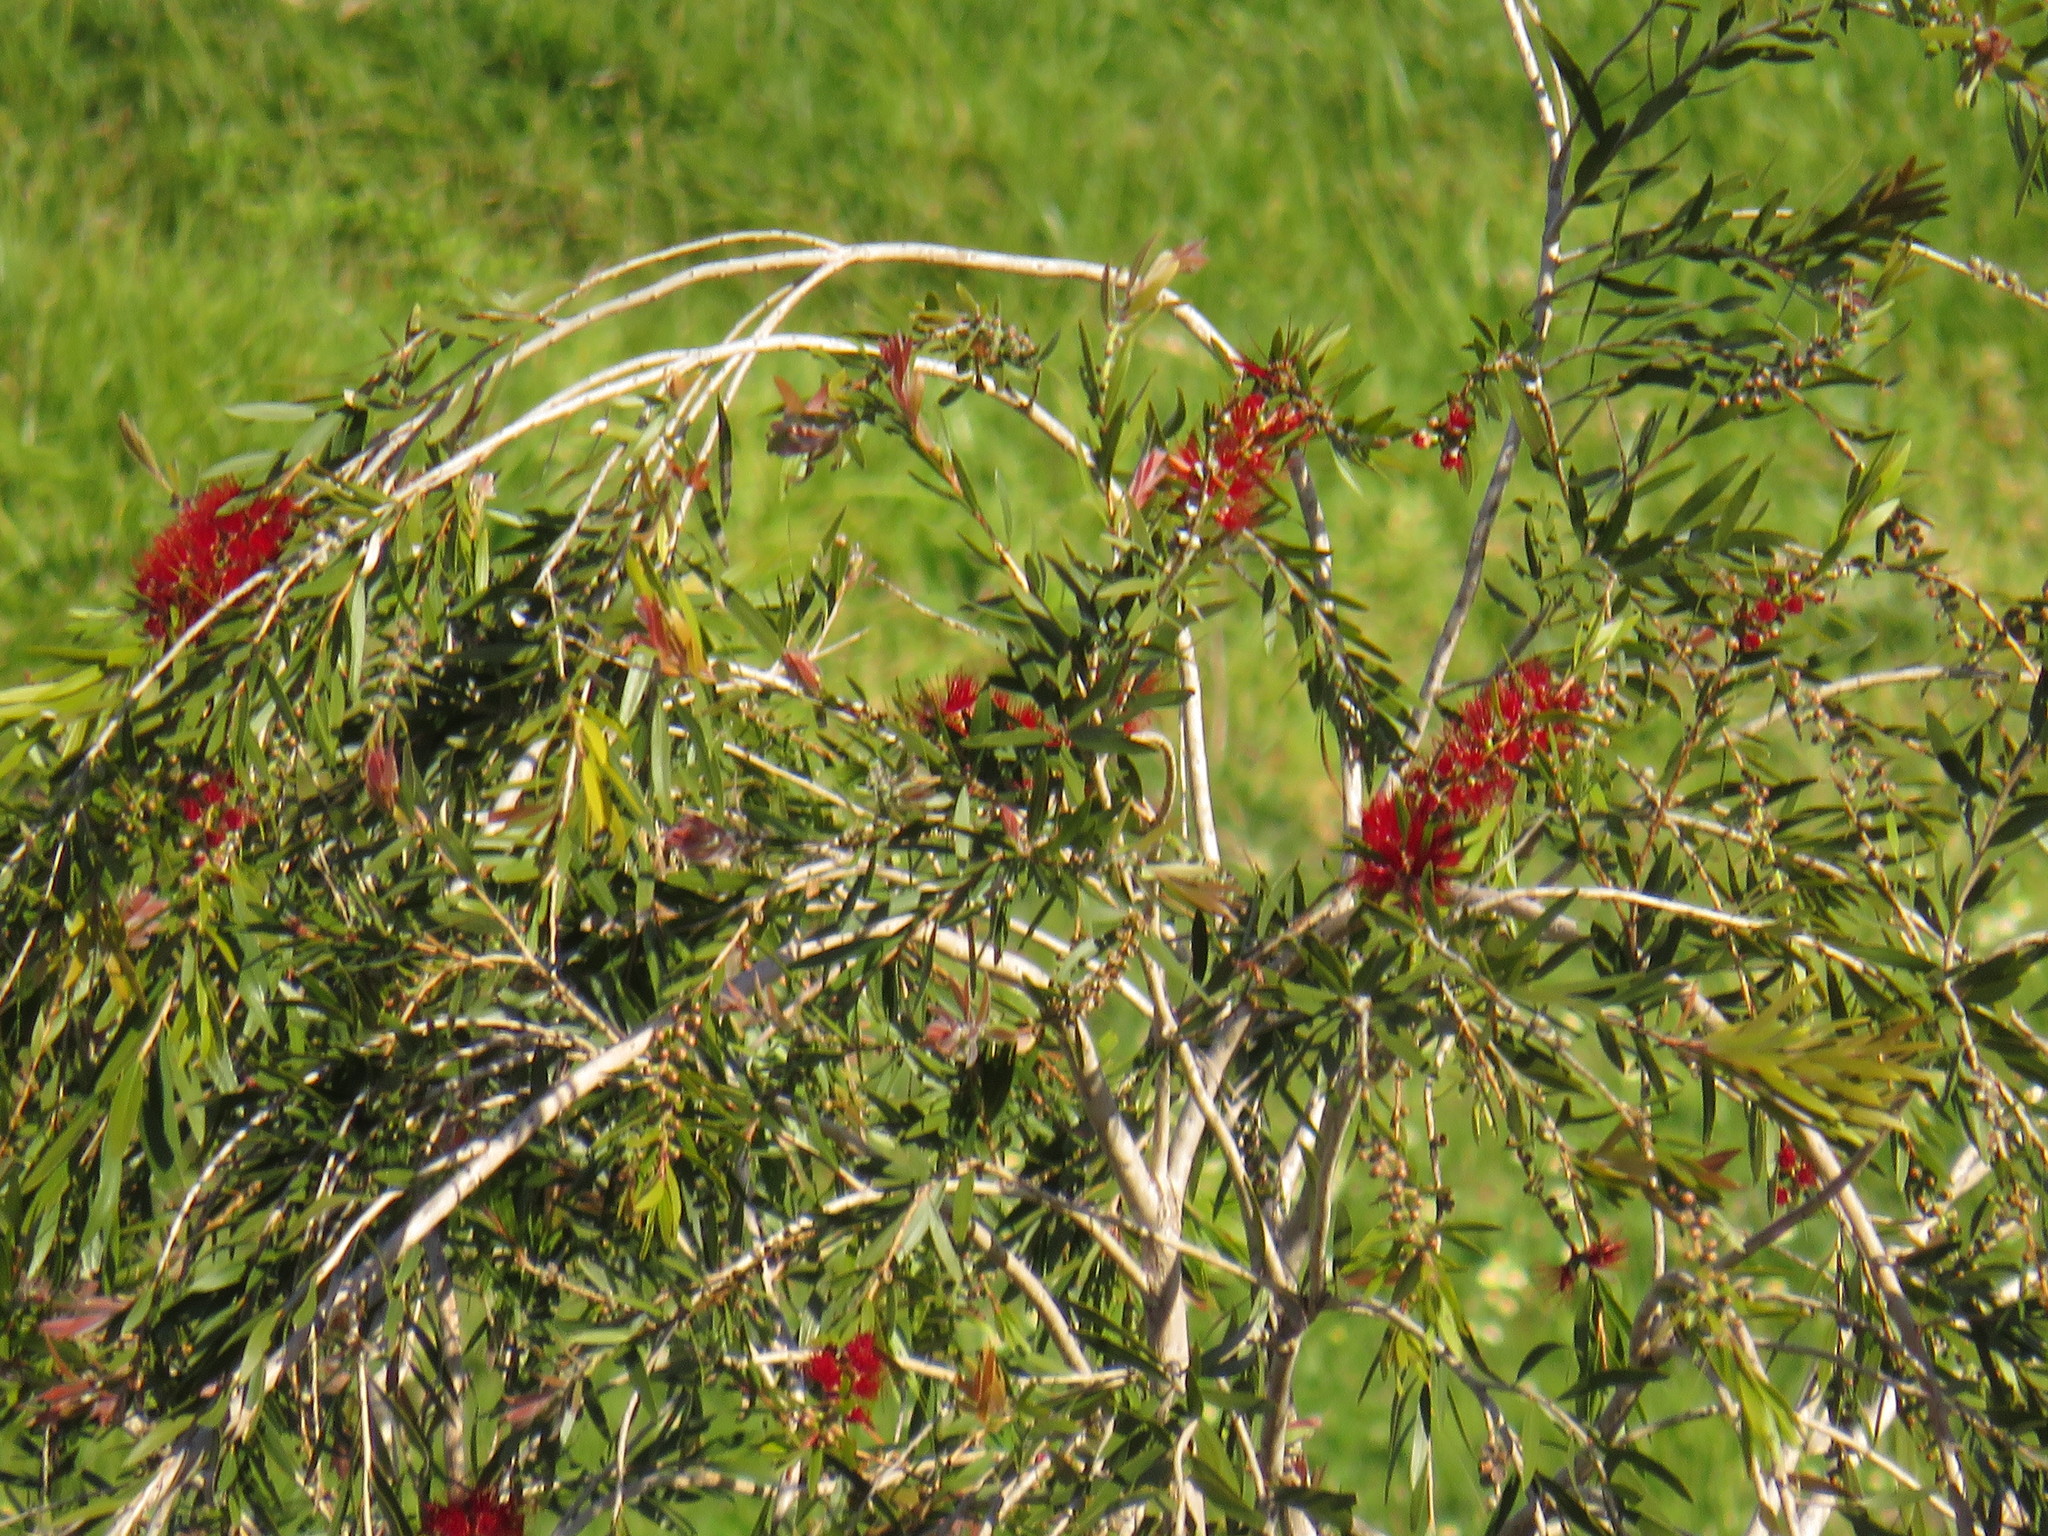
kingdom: Plantae
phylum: Tracheophyta
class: Magnoliopsida
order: Myrtales
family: Myrtaceae
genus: Callistemon
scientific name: Callistemon viminalis
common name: Drooping bottlebrush
